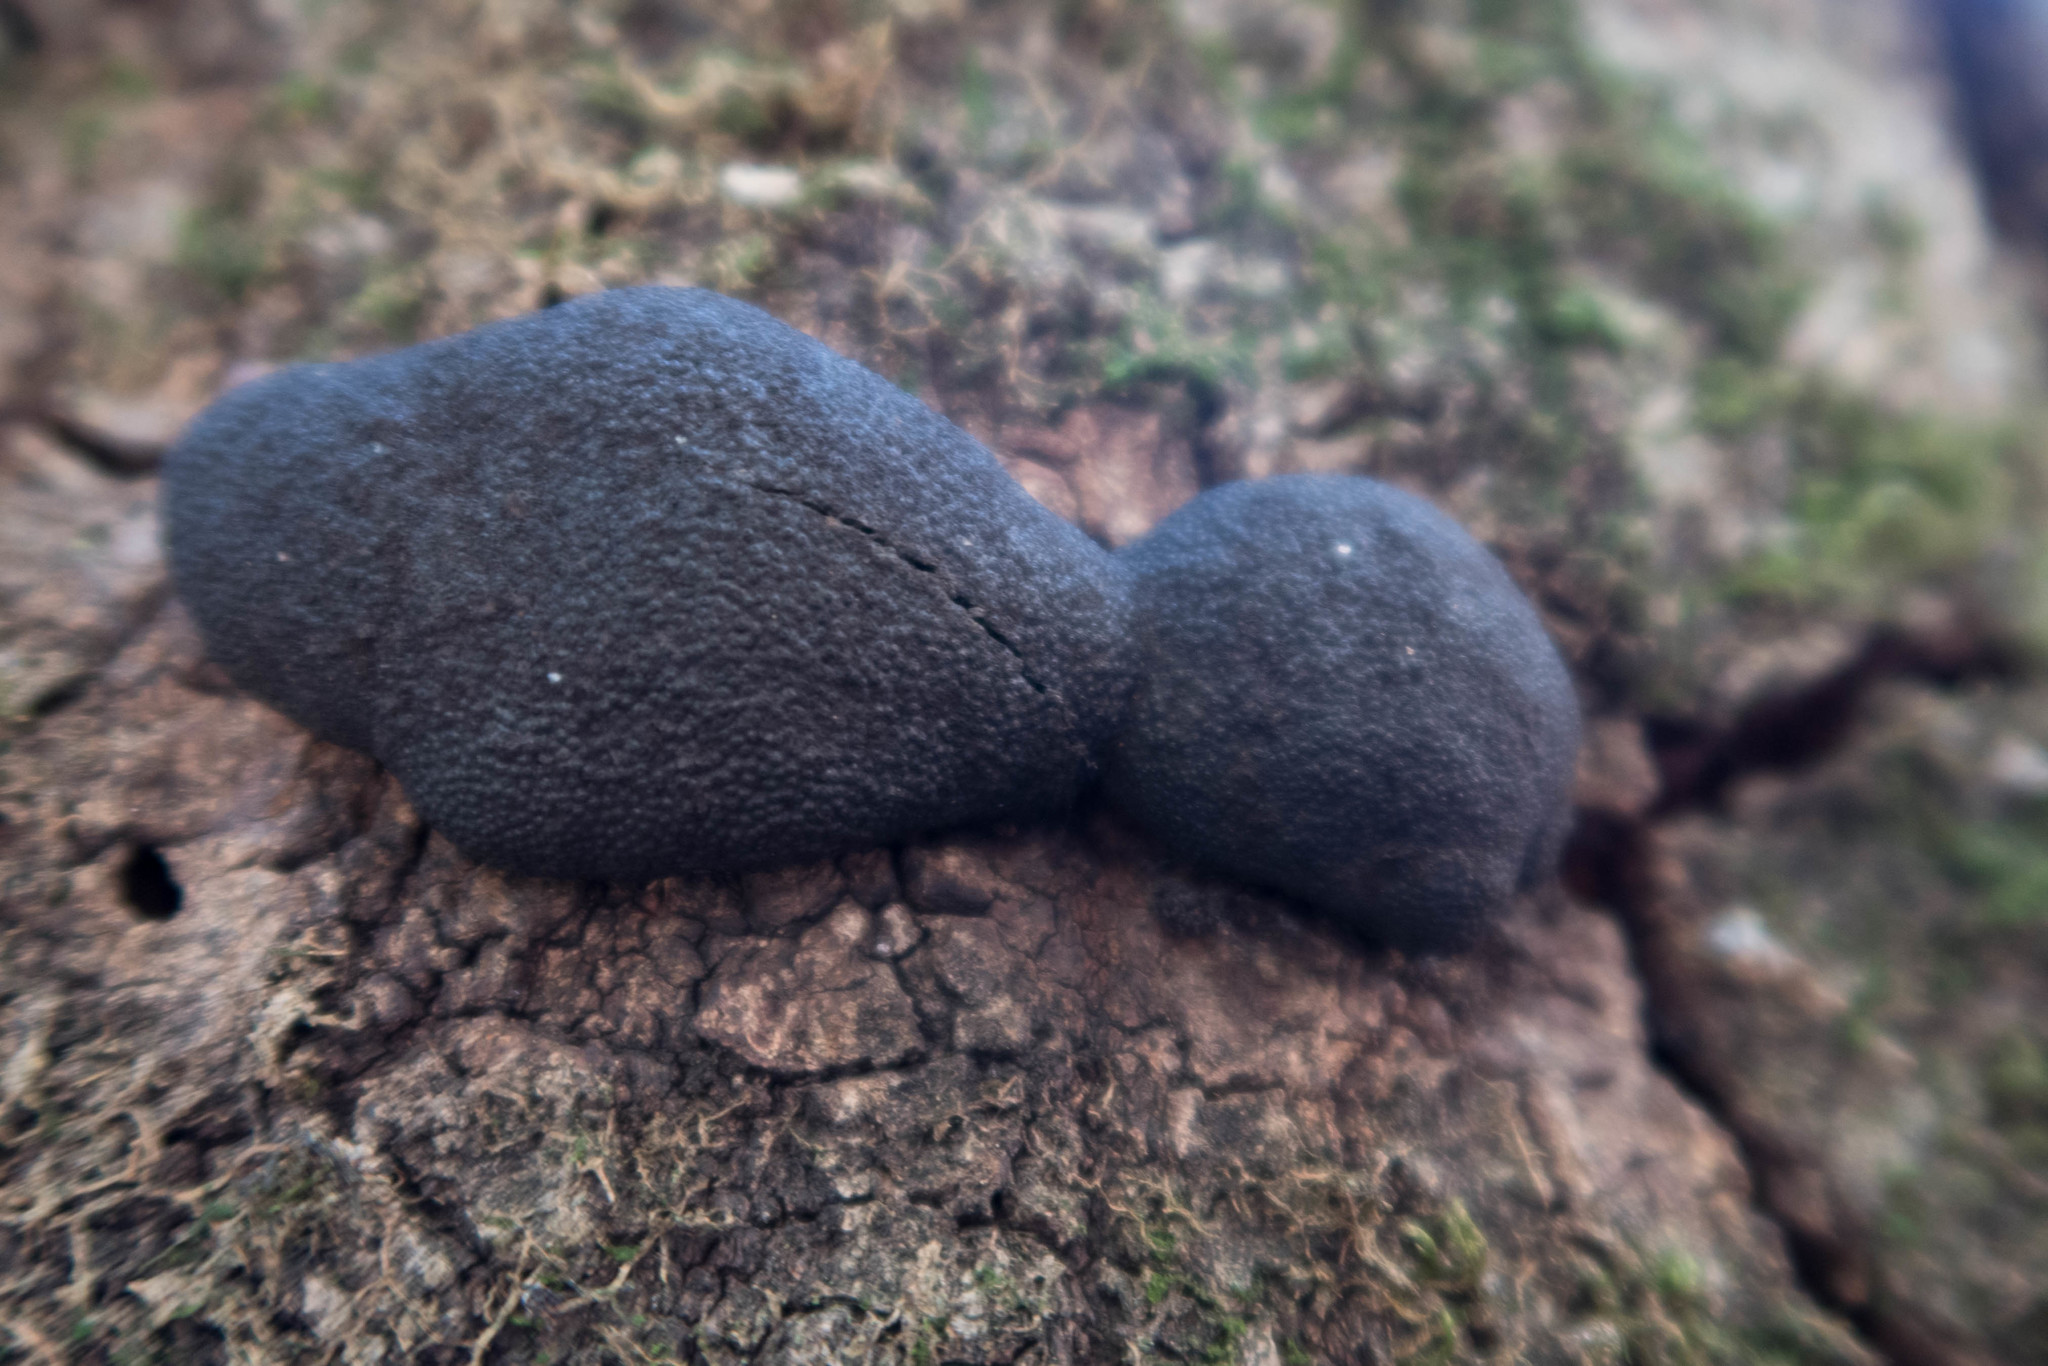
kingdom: Fungi
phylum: Ascomycota
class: Sordariomycetes
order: Xylariales
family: Hypoxylaceae
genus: Annulohypoxylon
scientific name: Annulohypoxylon thouarsianum
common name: Cramp balls
